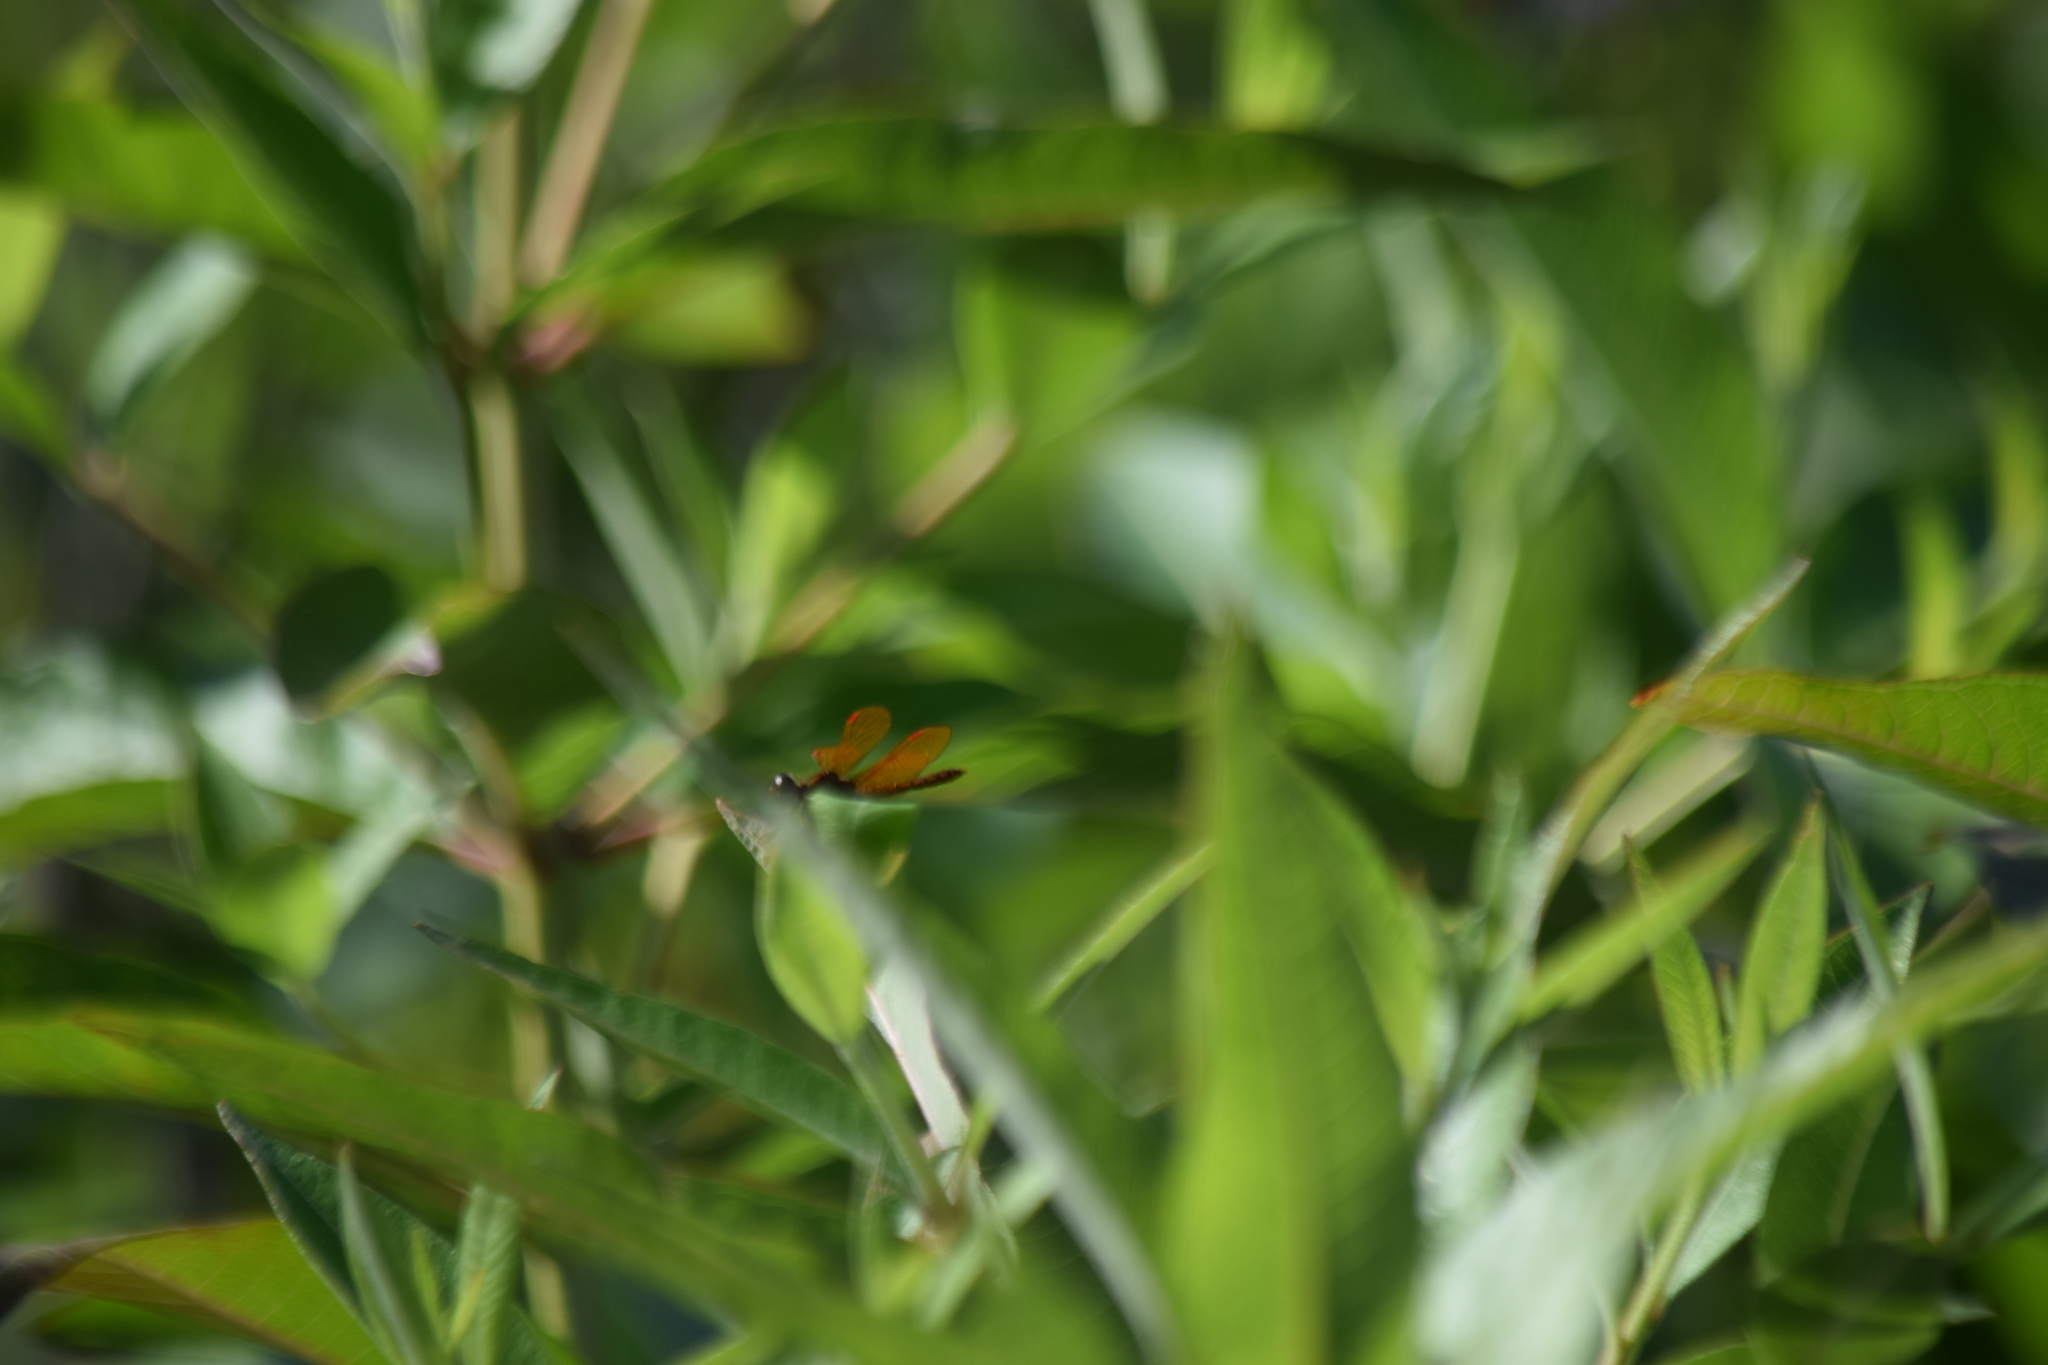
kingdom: Animalia
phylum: Arthropoda
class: Insecta
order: Odonata
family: Libellulidae
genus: Perithemis
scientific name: Perithemis tenera
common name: Eastern amberwing
